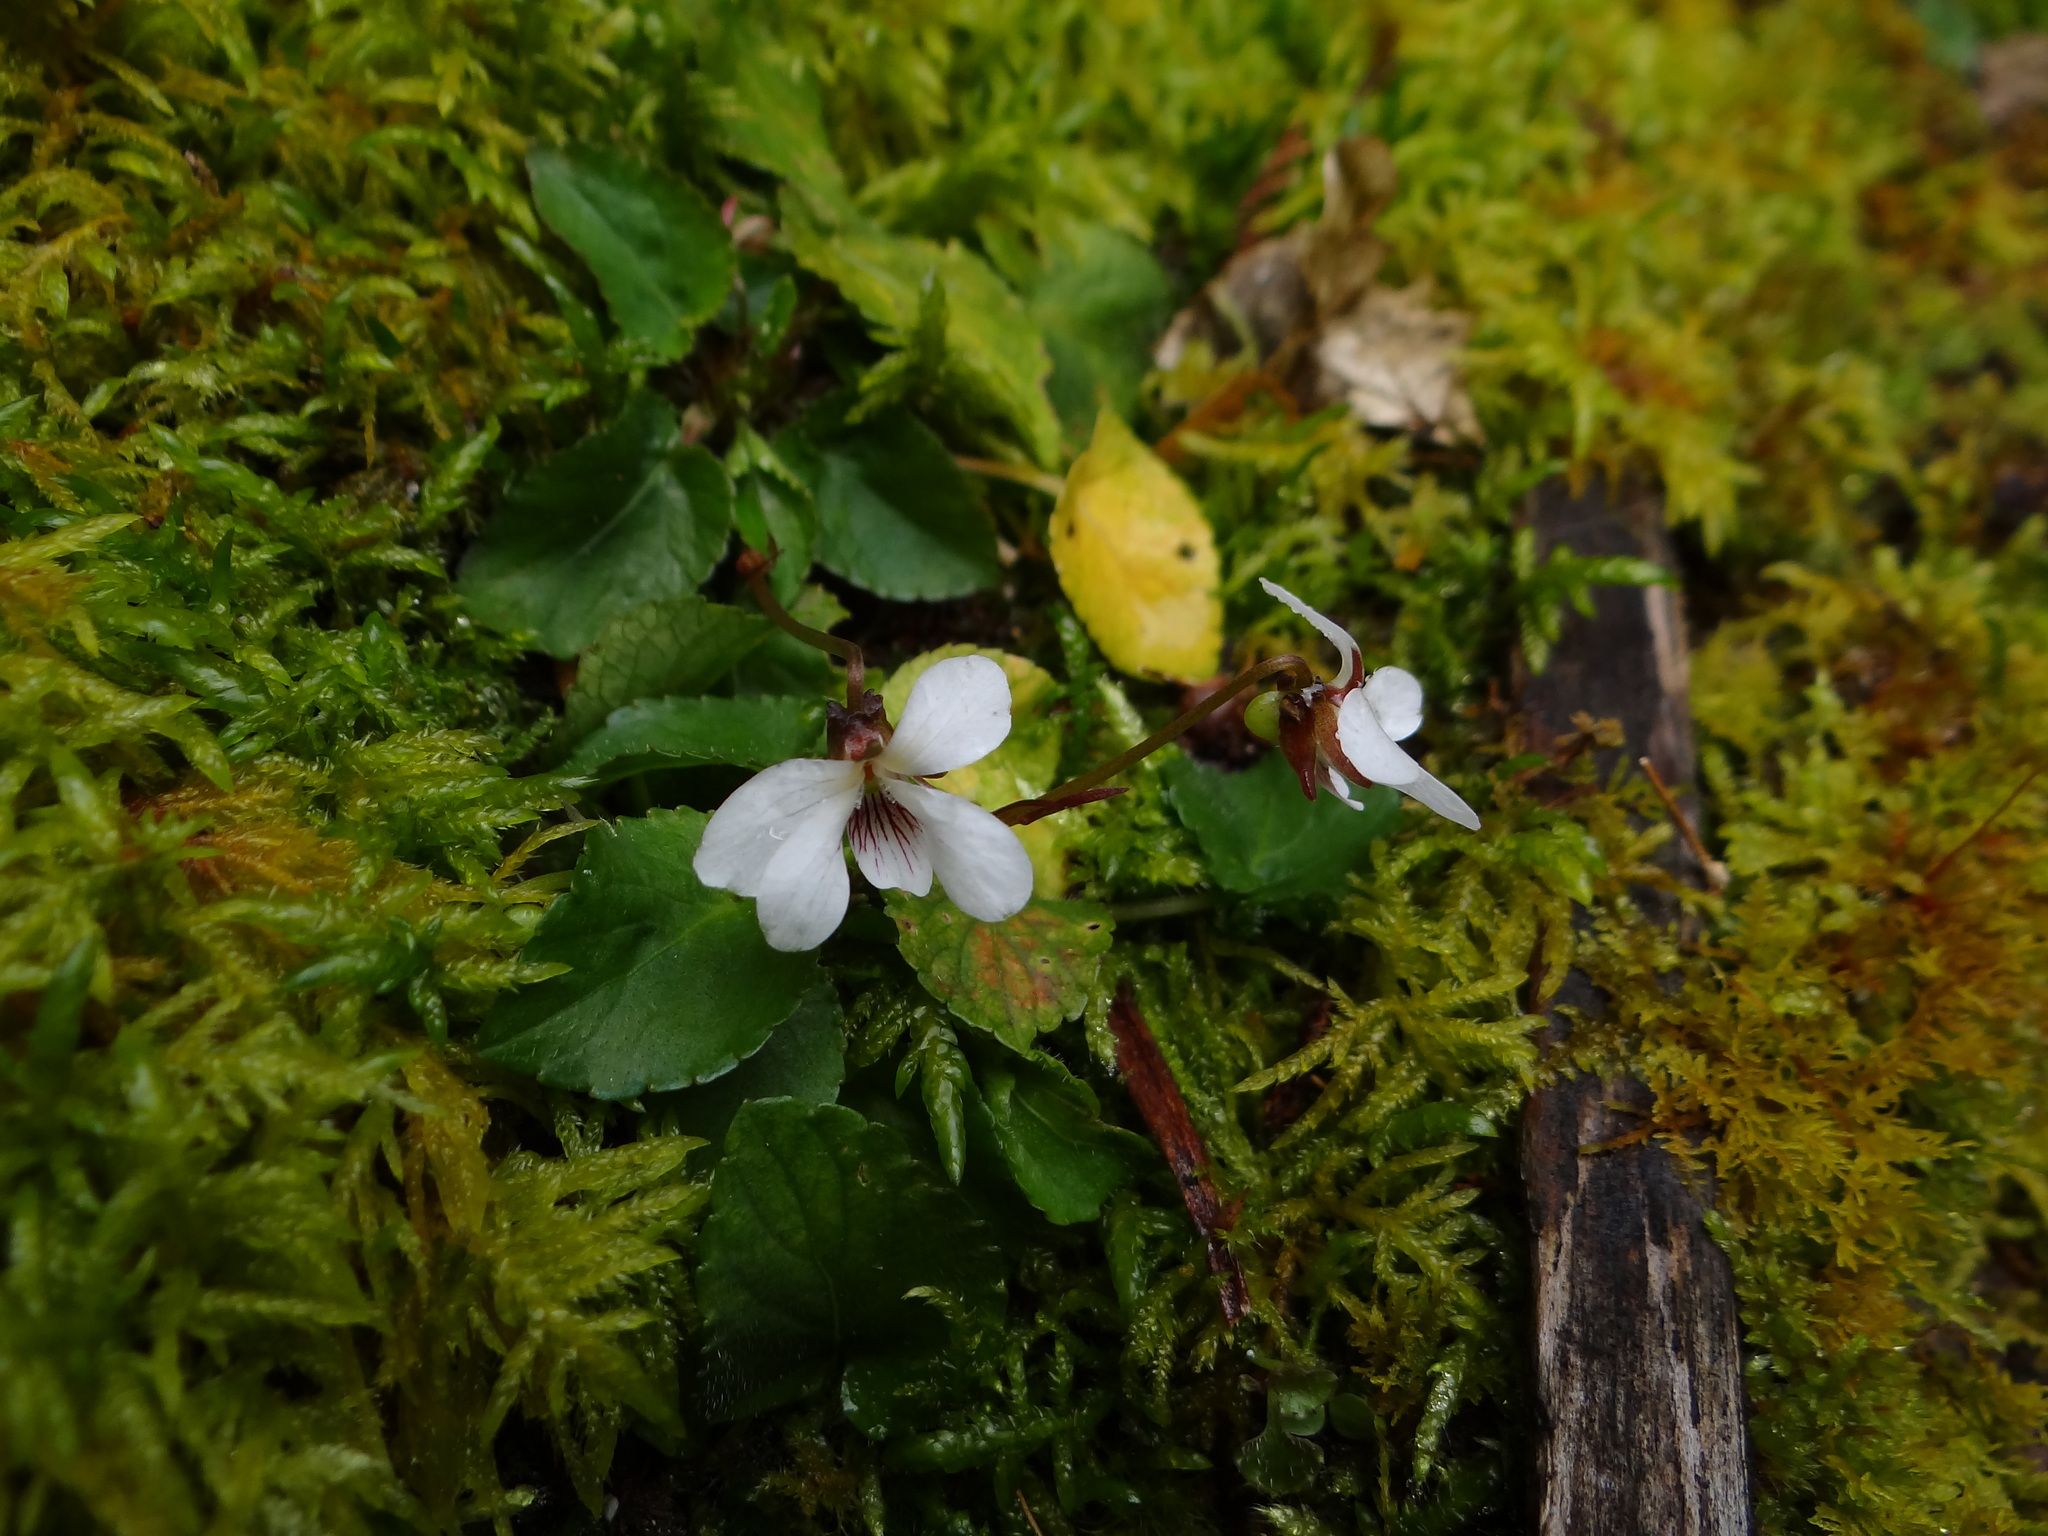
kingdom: Plantae
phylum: Tracheophyta
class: Magnoliopsida
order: Malpighiales
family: Violaceae
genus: Viola
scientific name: Viola adenothrix
